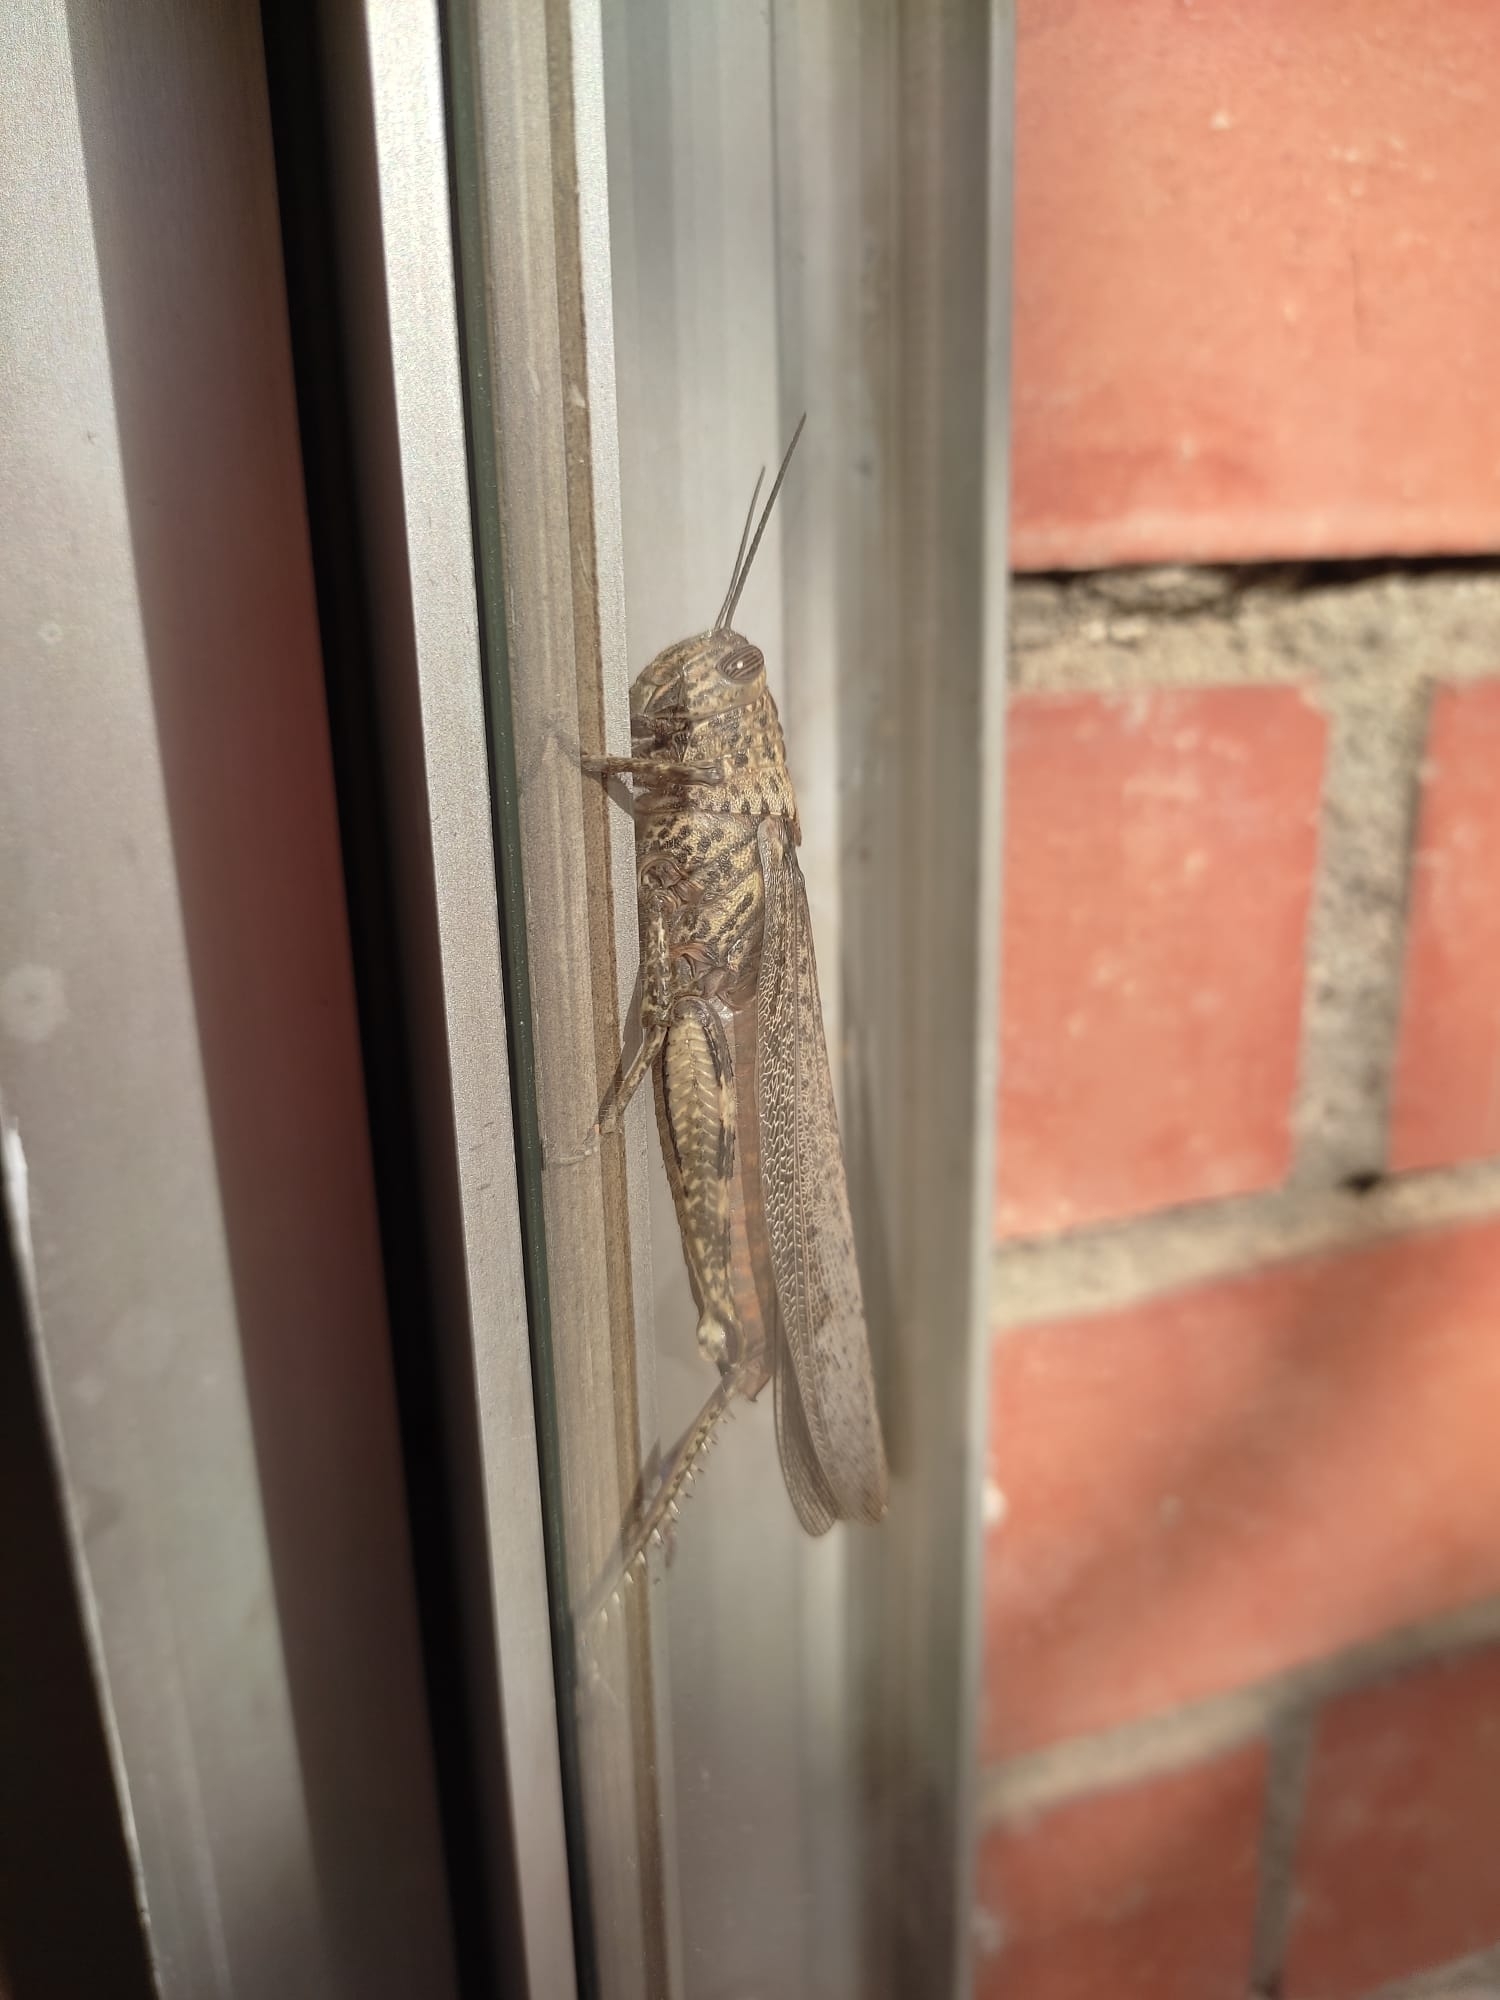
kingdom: Animalia
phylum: Arthropoda
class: Insecta
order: Orthoptera
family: Acrididae
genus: Anacridium
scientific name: Anacridium aegyptium
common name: Egyptian grasshopper
